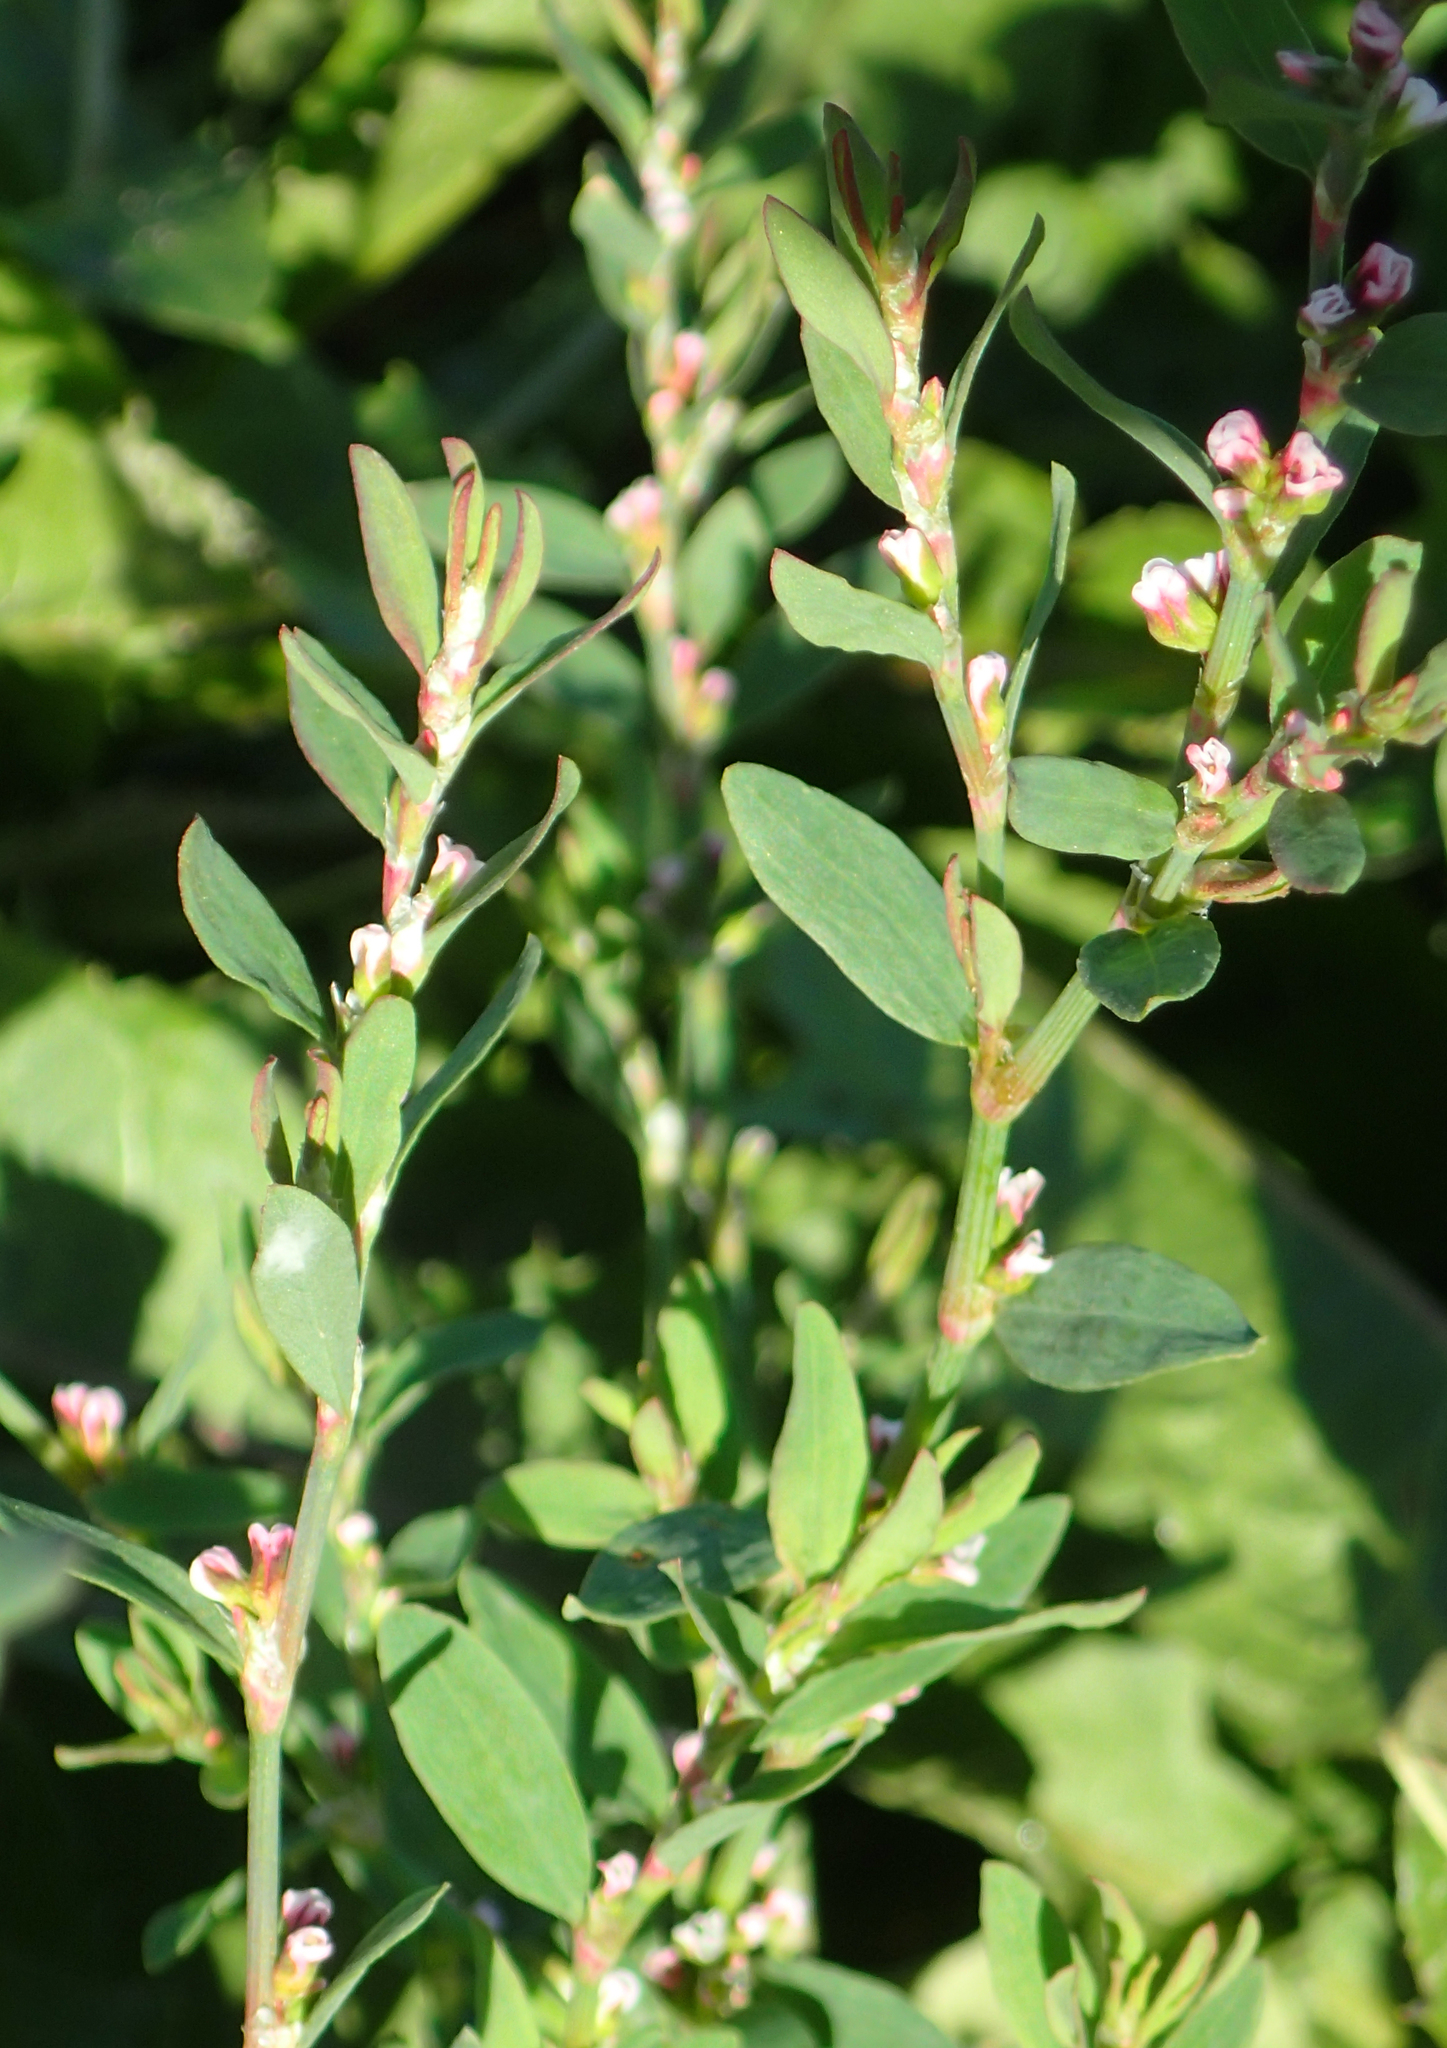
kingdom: Plantae
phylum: Tracheophyta
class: Magnoliopsida
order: Caryophyllales
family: Polygonaceae
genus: Polygonum
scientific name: Polygonum aviculare
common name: Prostrate knotweed
